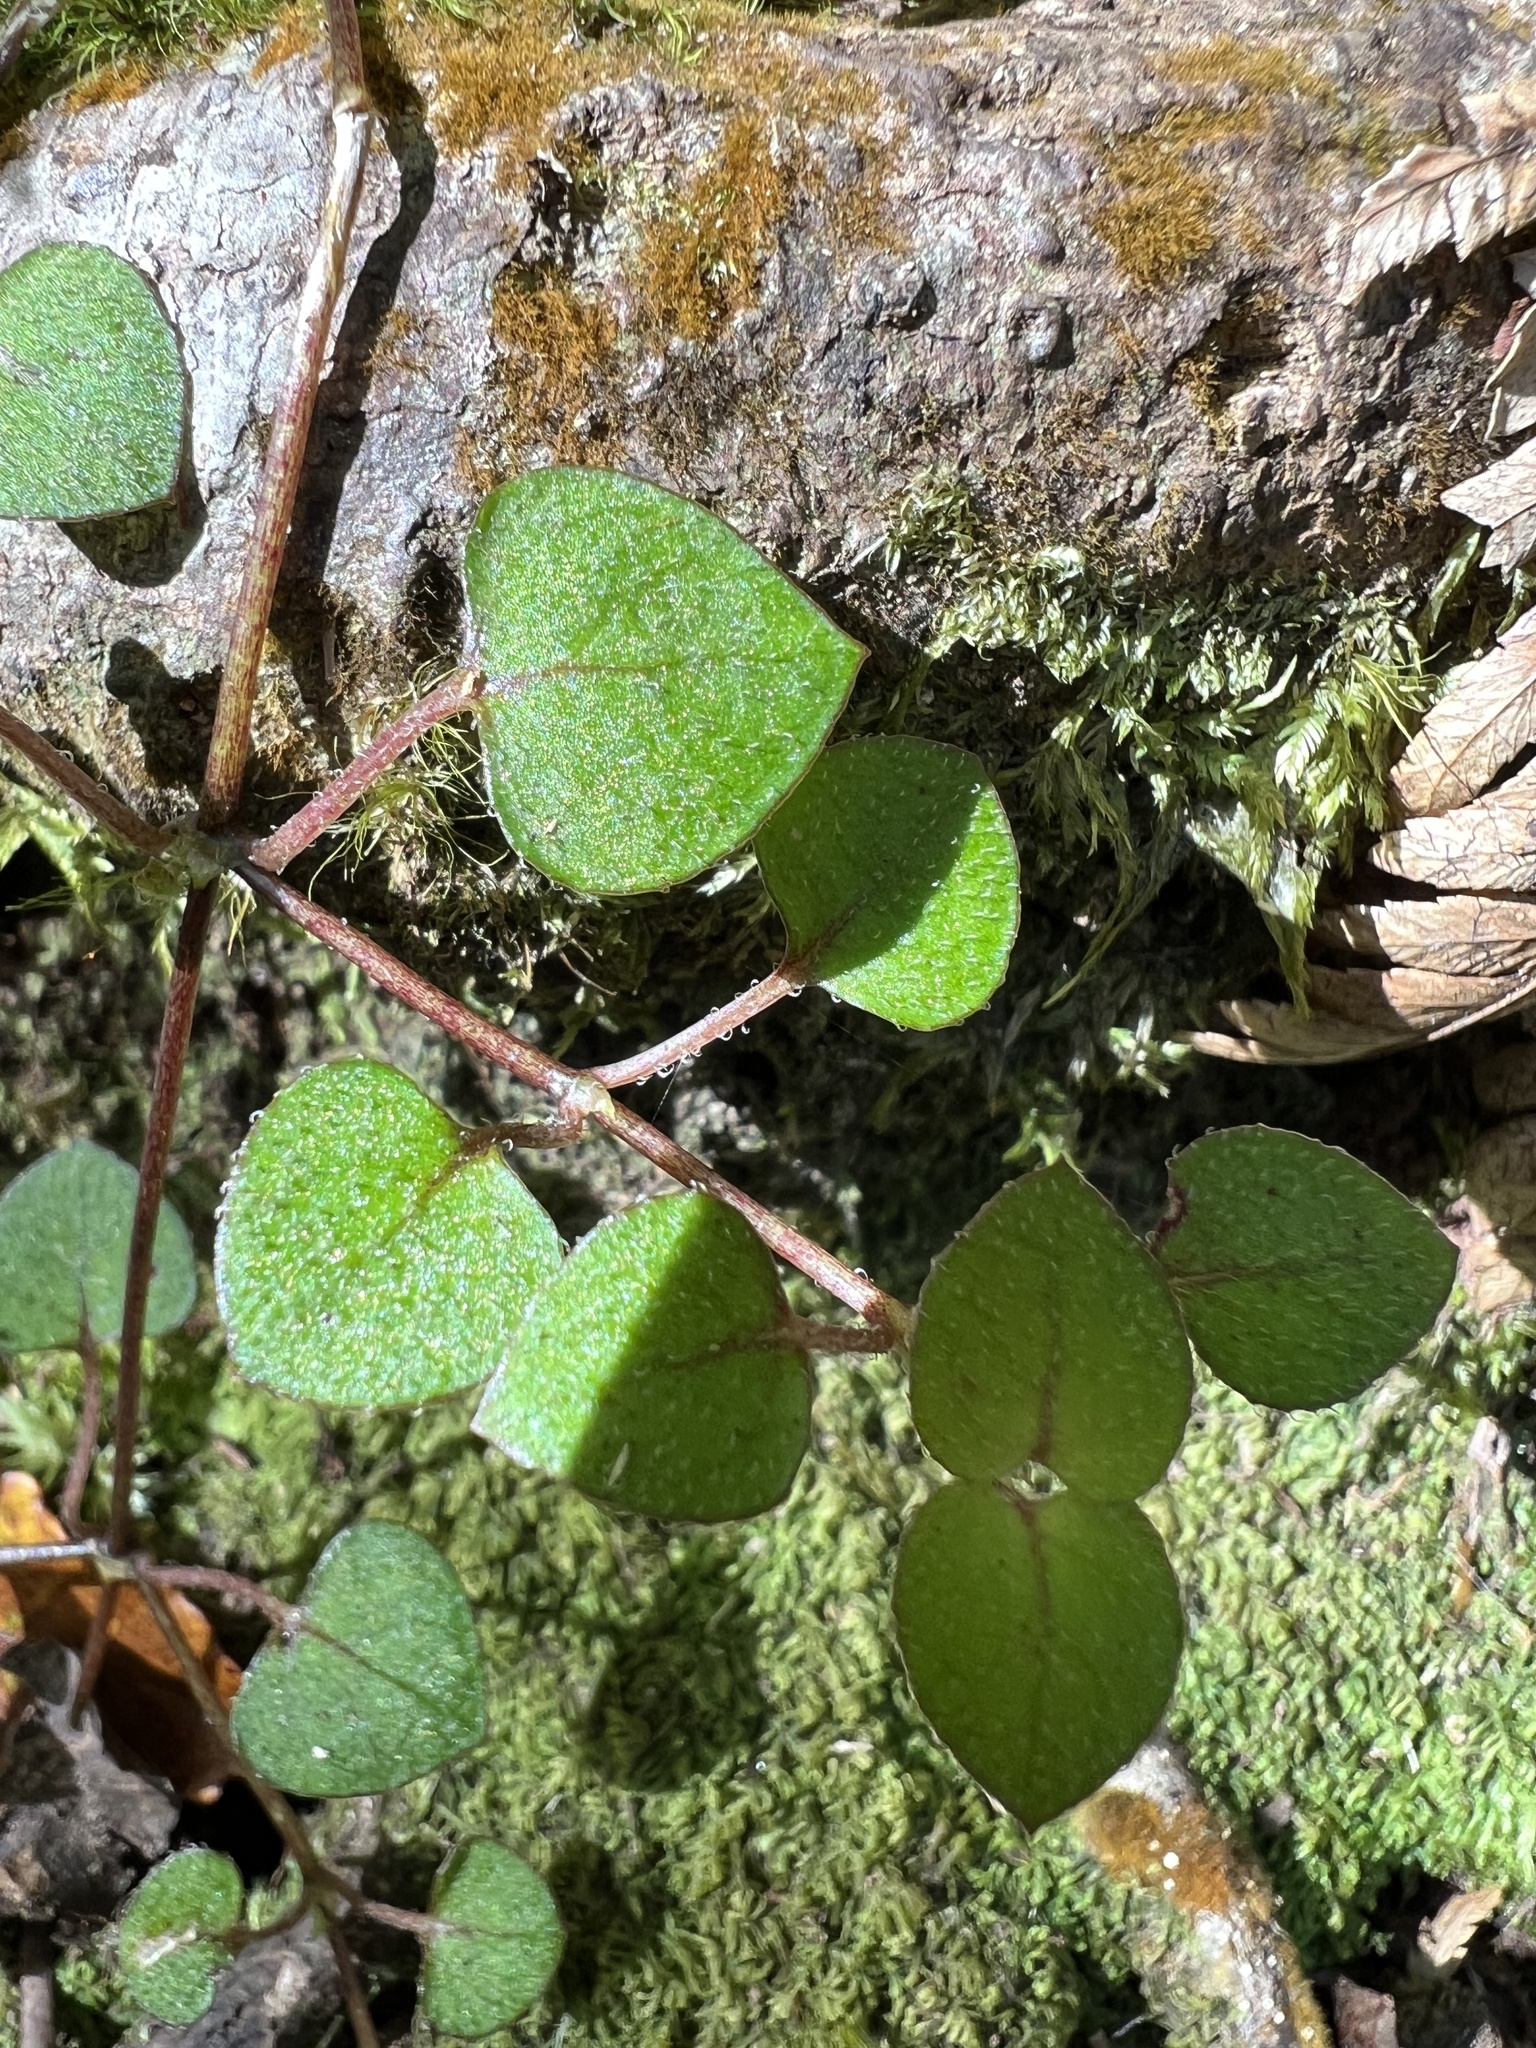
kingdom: Plantae
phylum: Tracheophyta
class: Magnoliopsida
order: Gentianales
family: Rubiaceae
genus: Nertera
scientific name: Nertera dichondrifolia
